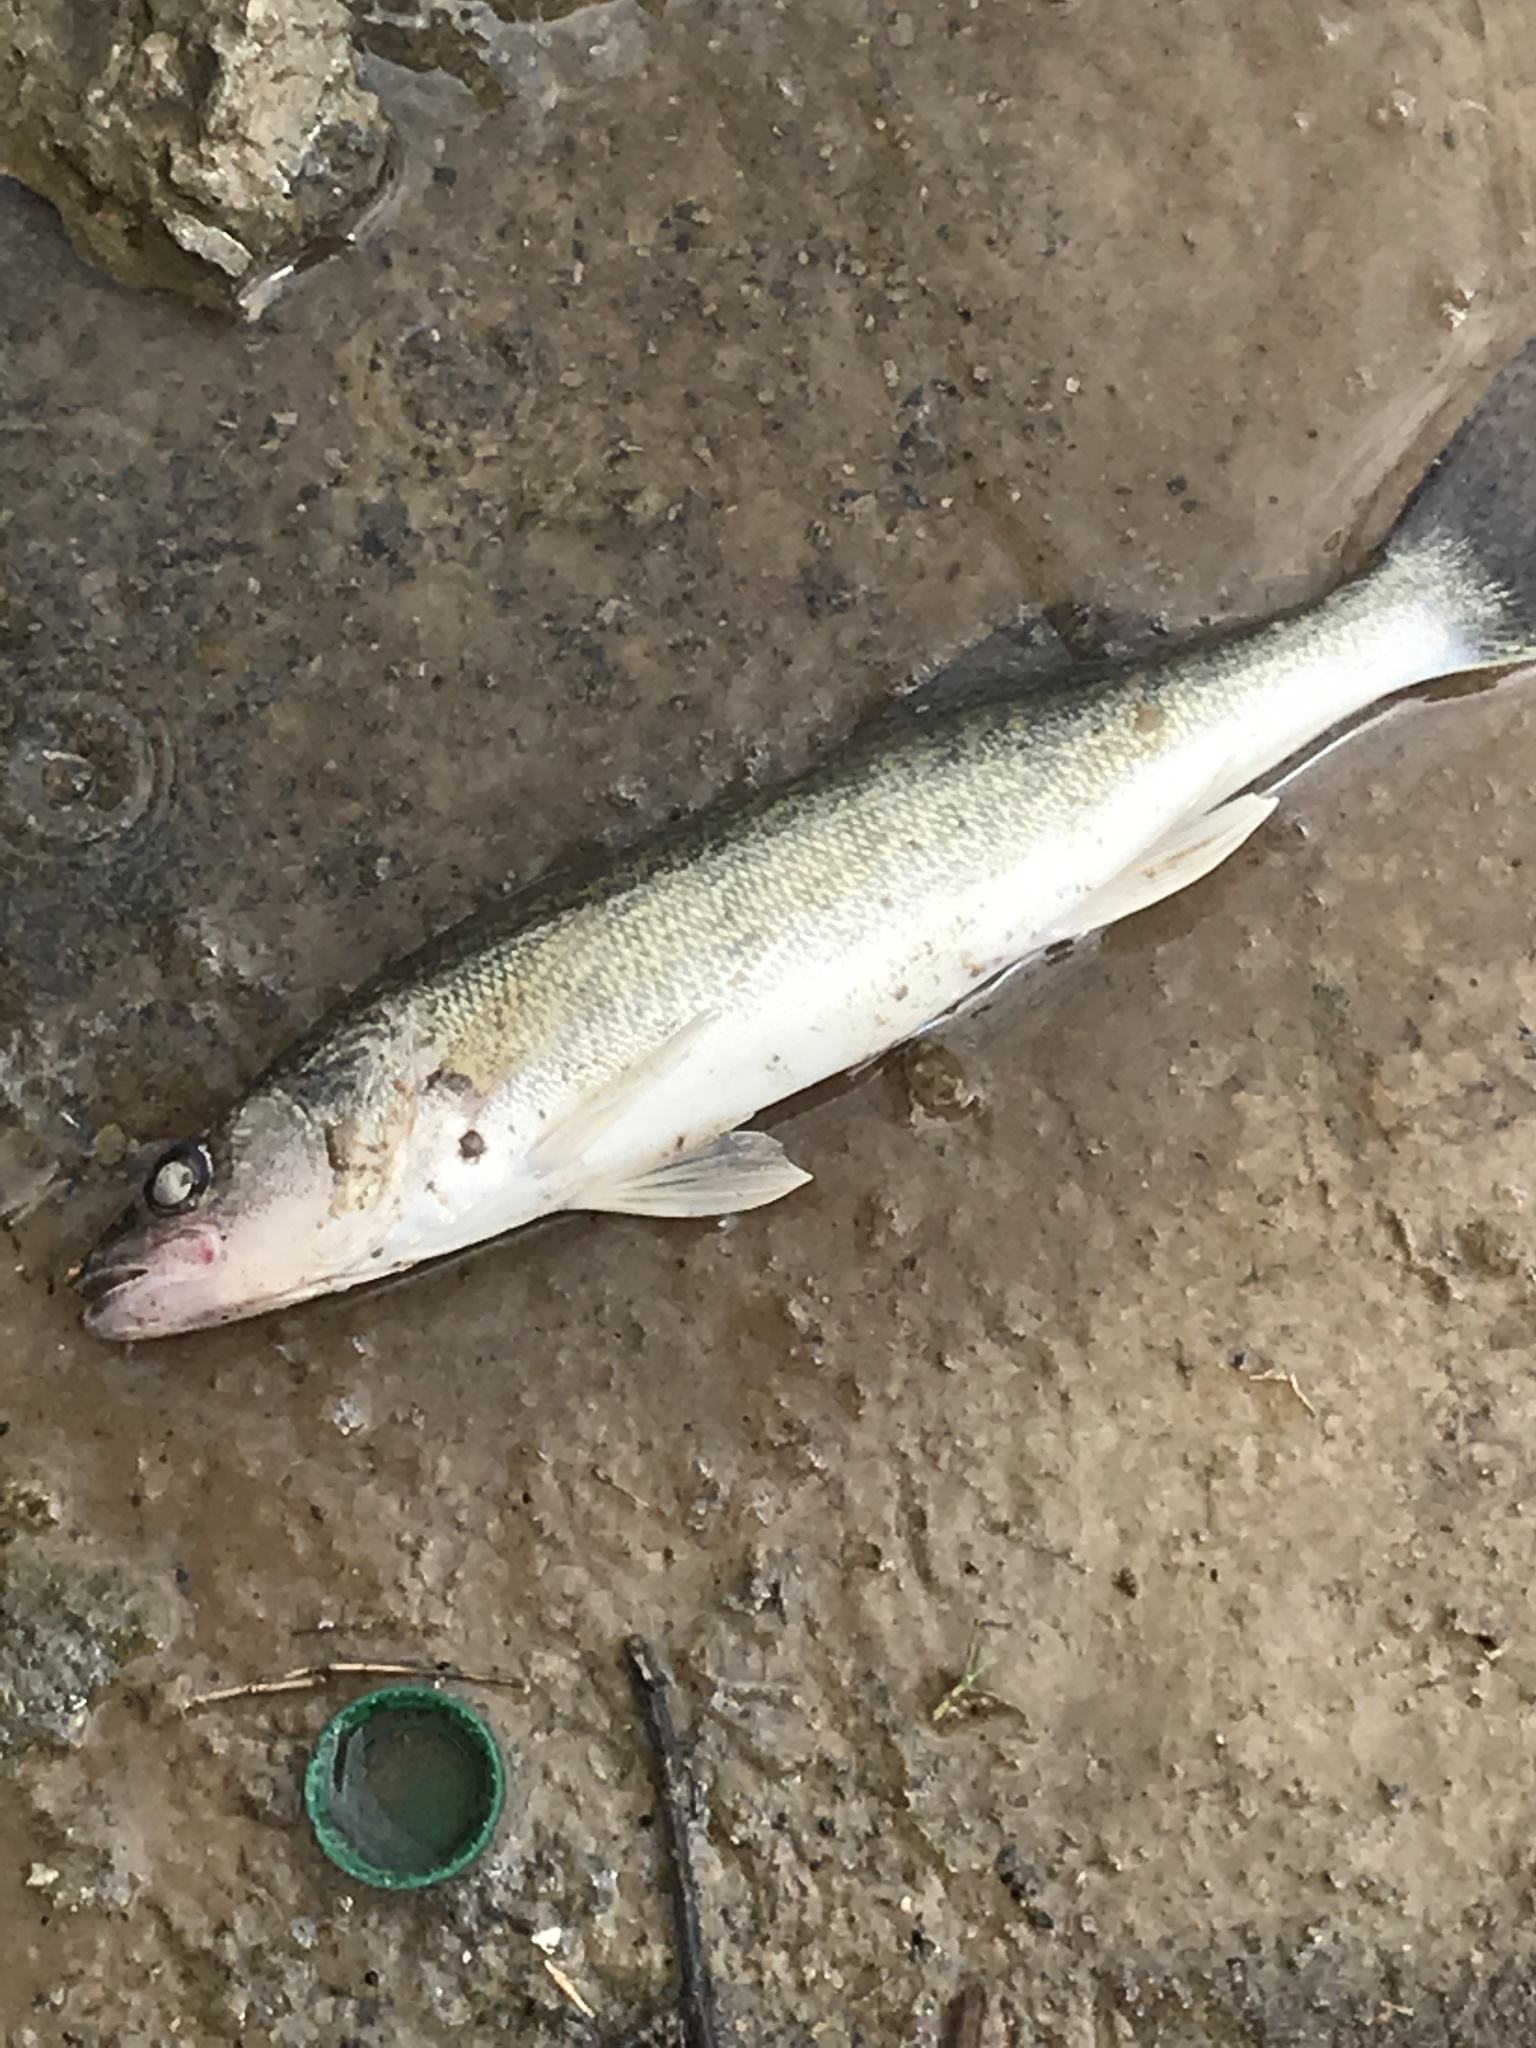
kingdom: Animalia
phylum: Chordata
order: Perciformes
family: Percidae
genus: Sander
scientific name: Sander vitreus
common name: Walleye
